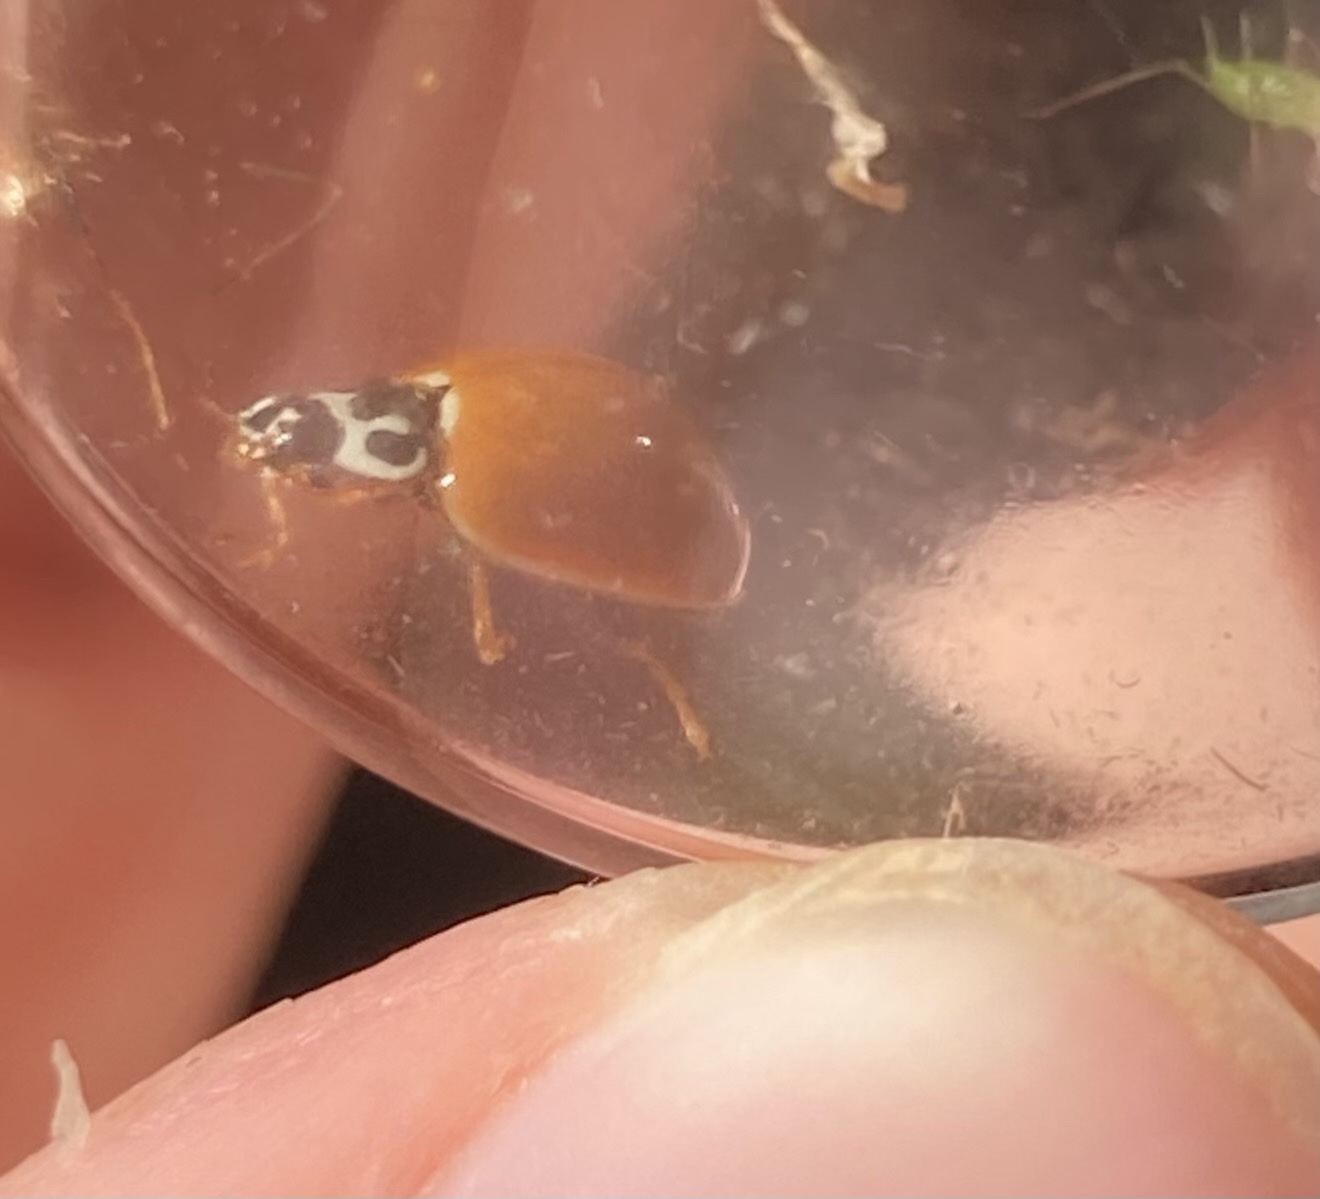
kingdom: Animalia
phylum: Arthropoda
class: Insecta
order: Coleoptera
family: Coccinellidae
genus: Cycloneda
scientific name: Cycloneda munda
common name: Polished lady beetle
